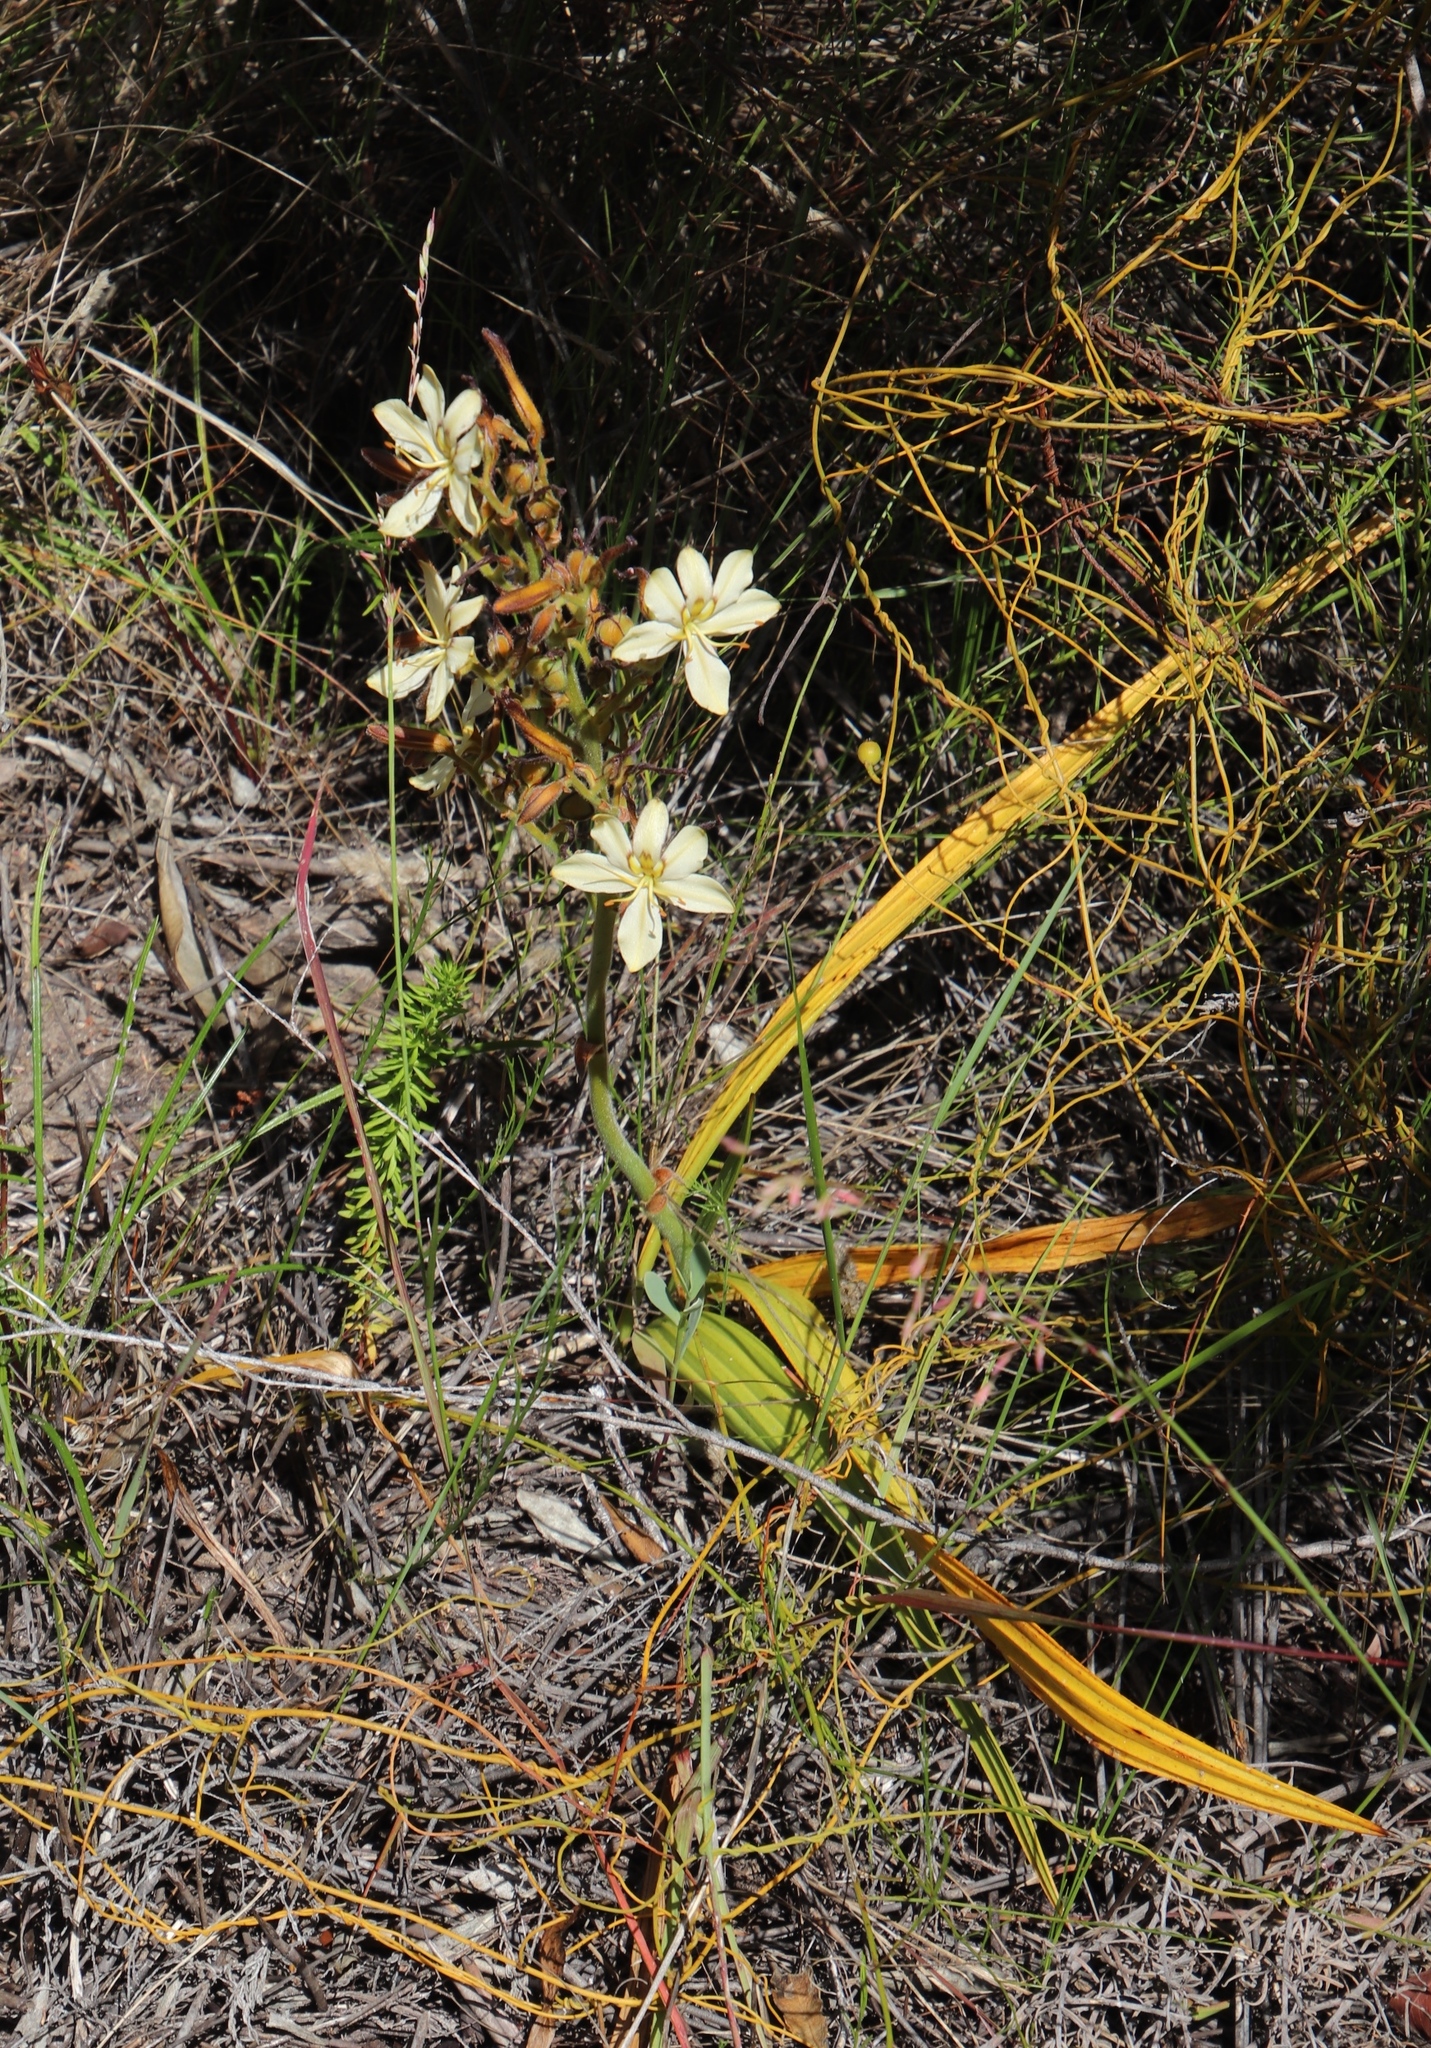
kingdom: Plantae
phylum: Tracheophyta
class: Liliopsida
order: Commelinales
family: Haemodoraceae
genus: Wachendorfia
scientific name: Wachendorfia paniculata
